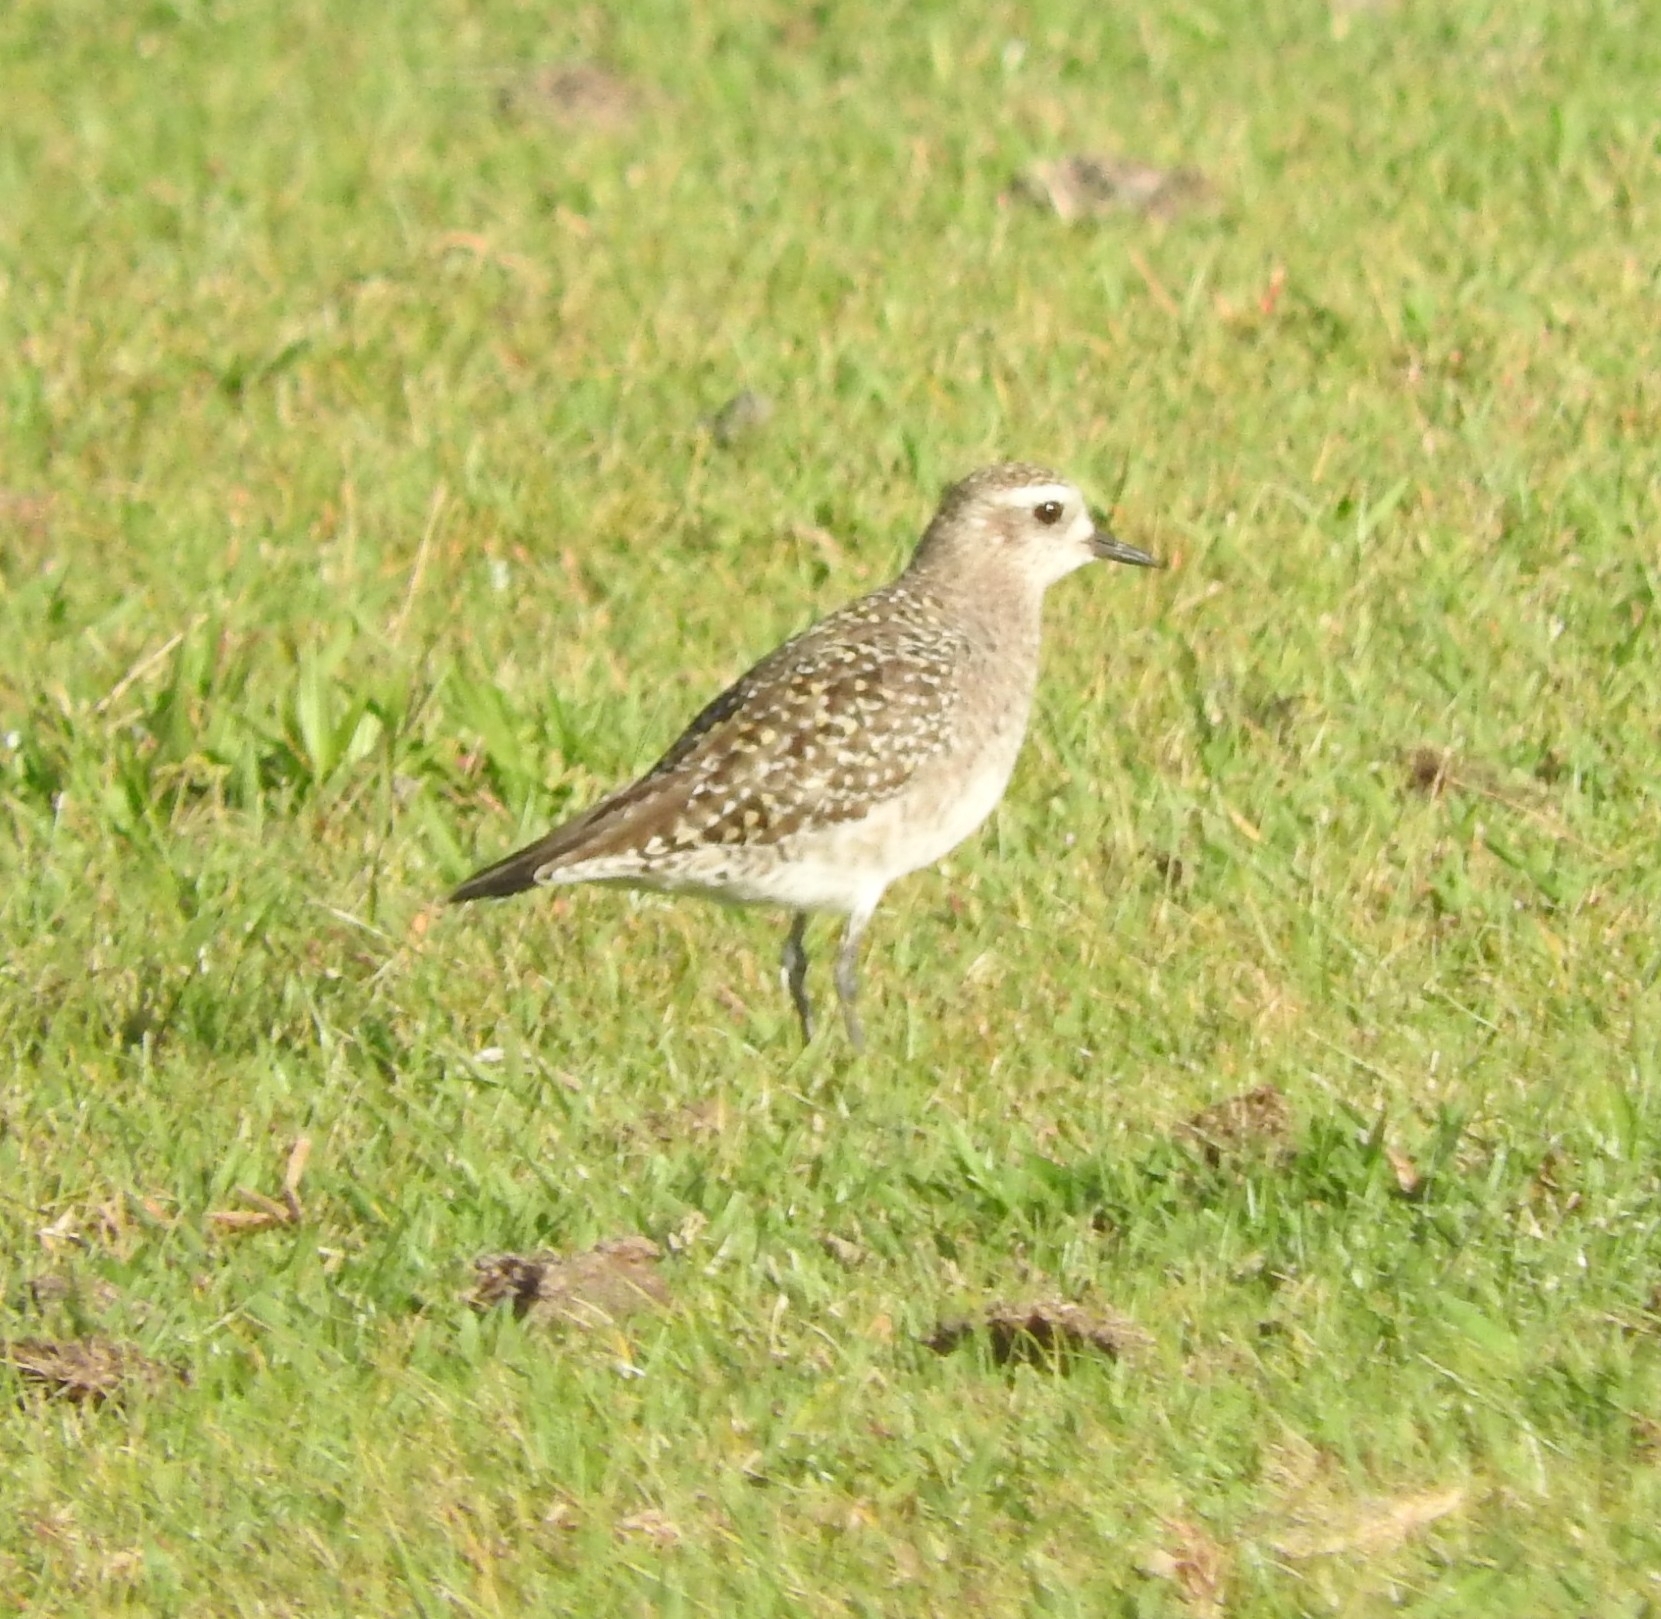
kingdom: Animalia
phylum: Chordata
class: Aves
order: Charadriiformes
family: Charadriidae
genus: Pluvialis
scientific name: Pluvialis dominica
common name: American golden plover
